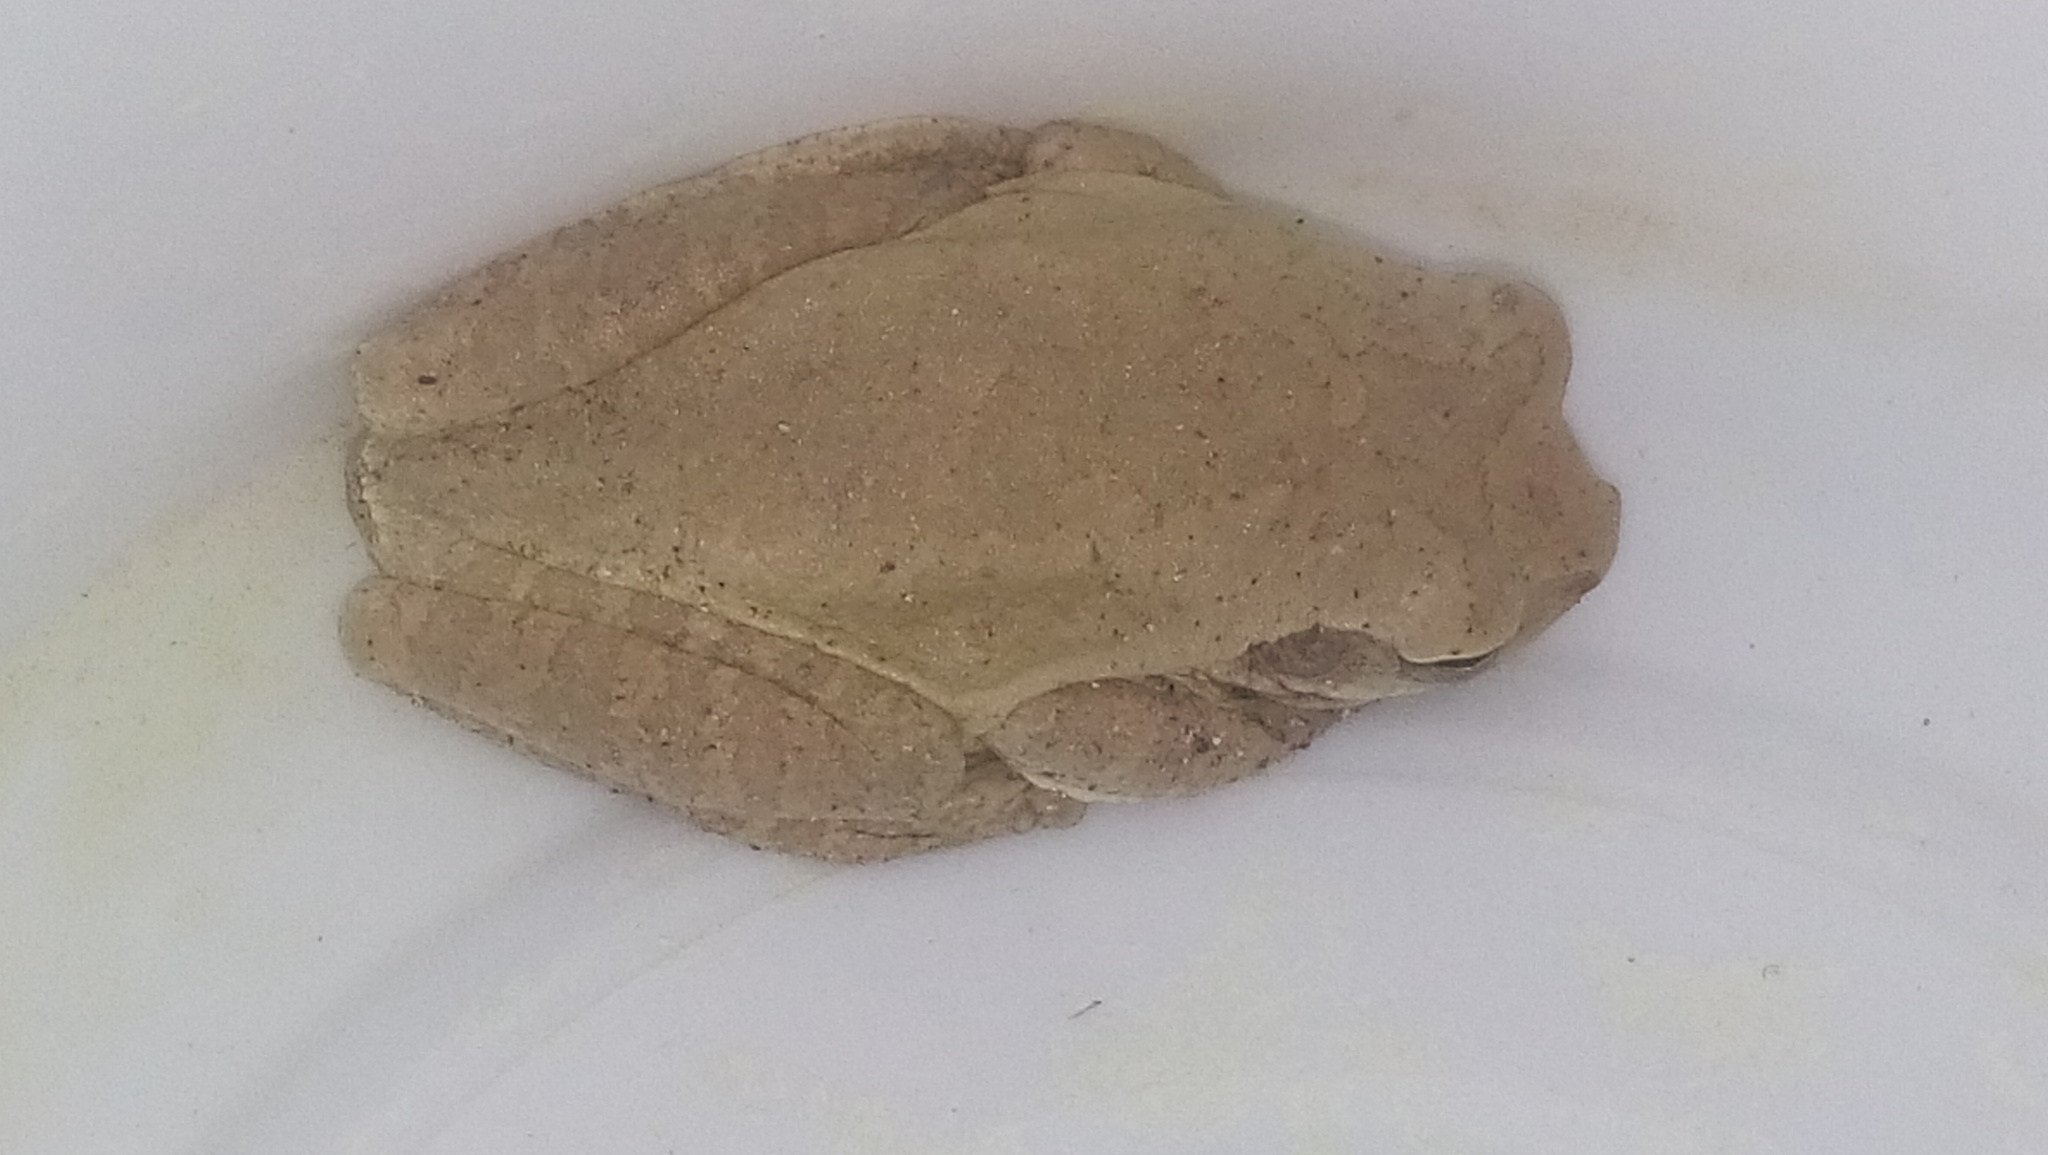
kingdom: Animalia
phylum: Chordata
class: Amphibia
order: Anura
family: Hylidae
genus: Smilisca
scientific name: Smilisca baudinii
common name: Mexican smilisca
